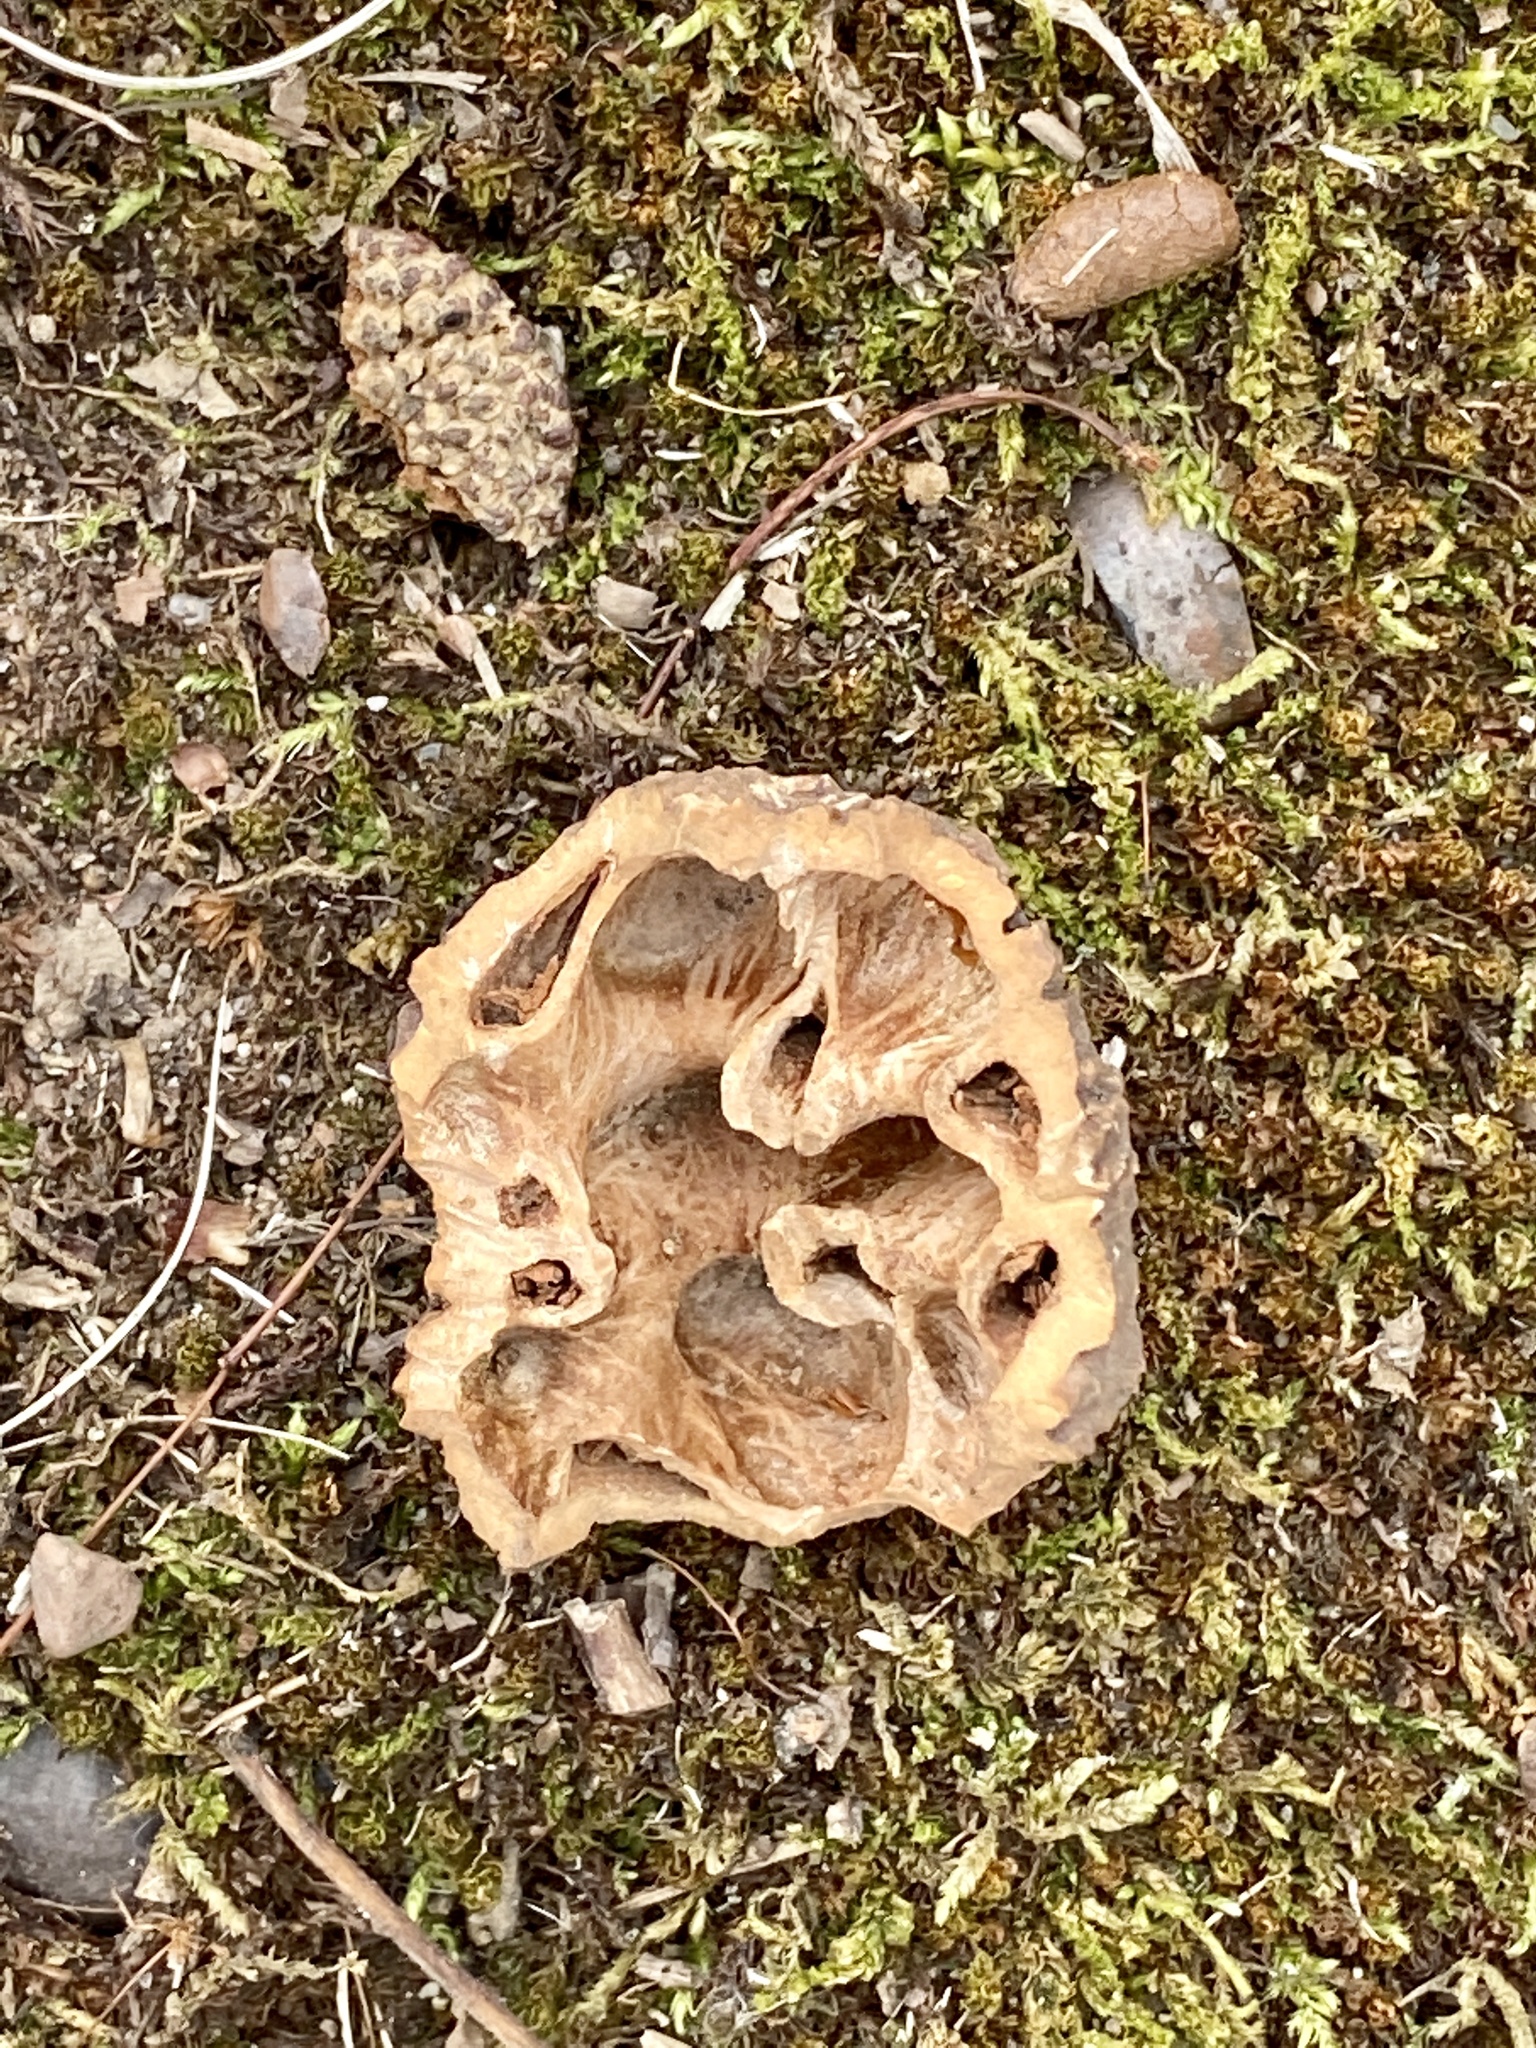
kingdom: Plantae
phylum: Tracheophyta
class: Magnoliopsida
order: Fagales
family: Juglandaceae
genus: Juglans
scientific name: Juglans nigra
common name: Black walnut
